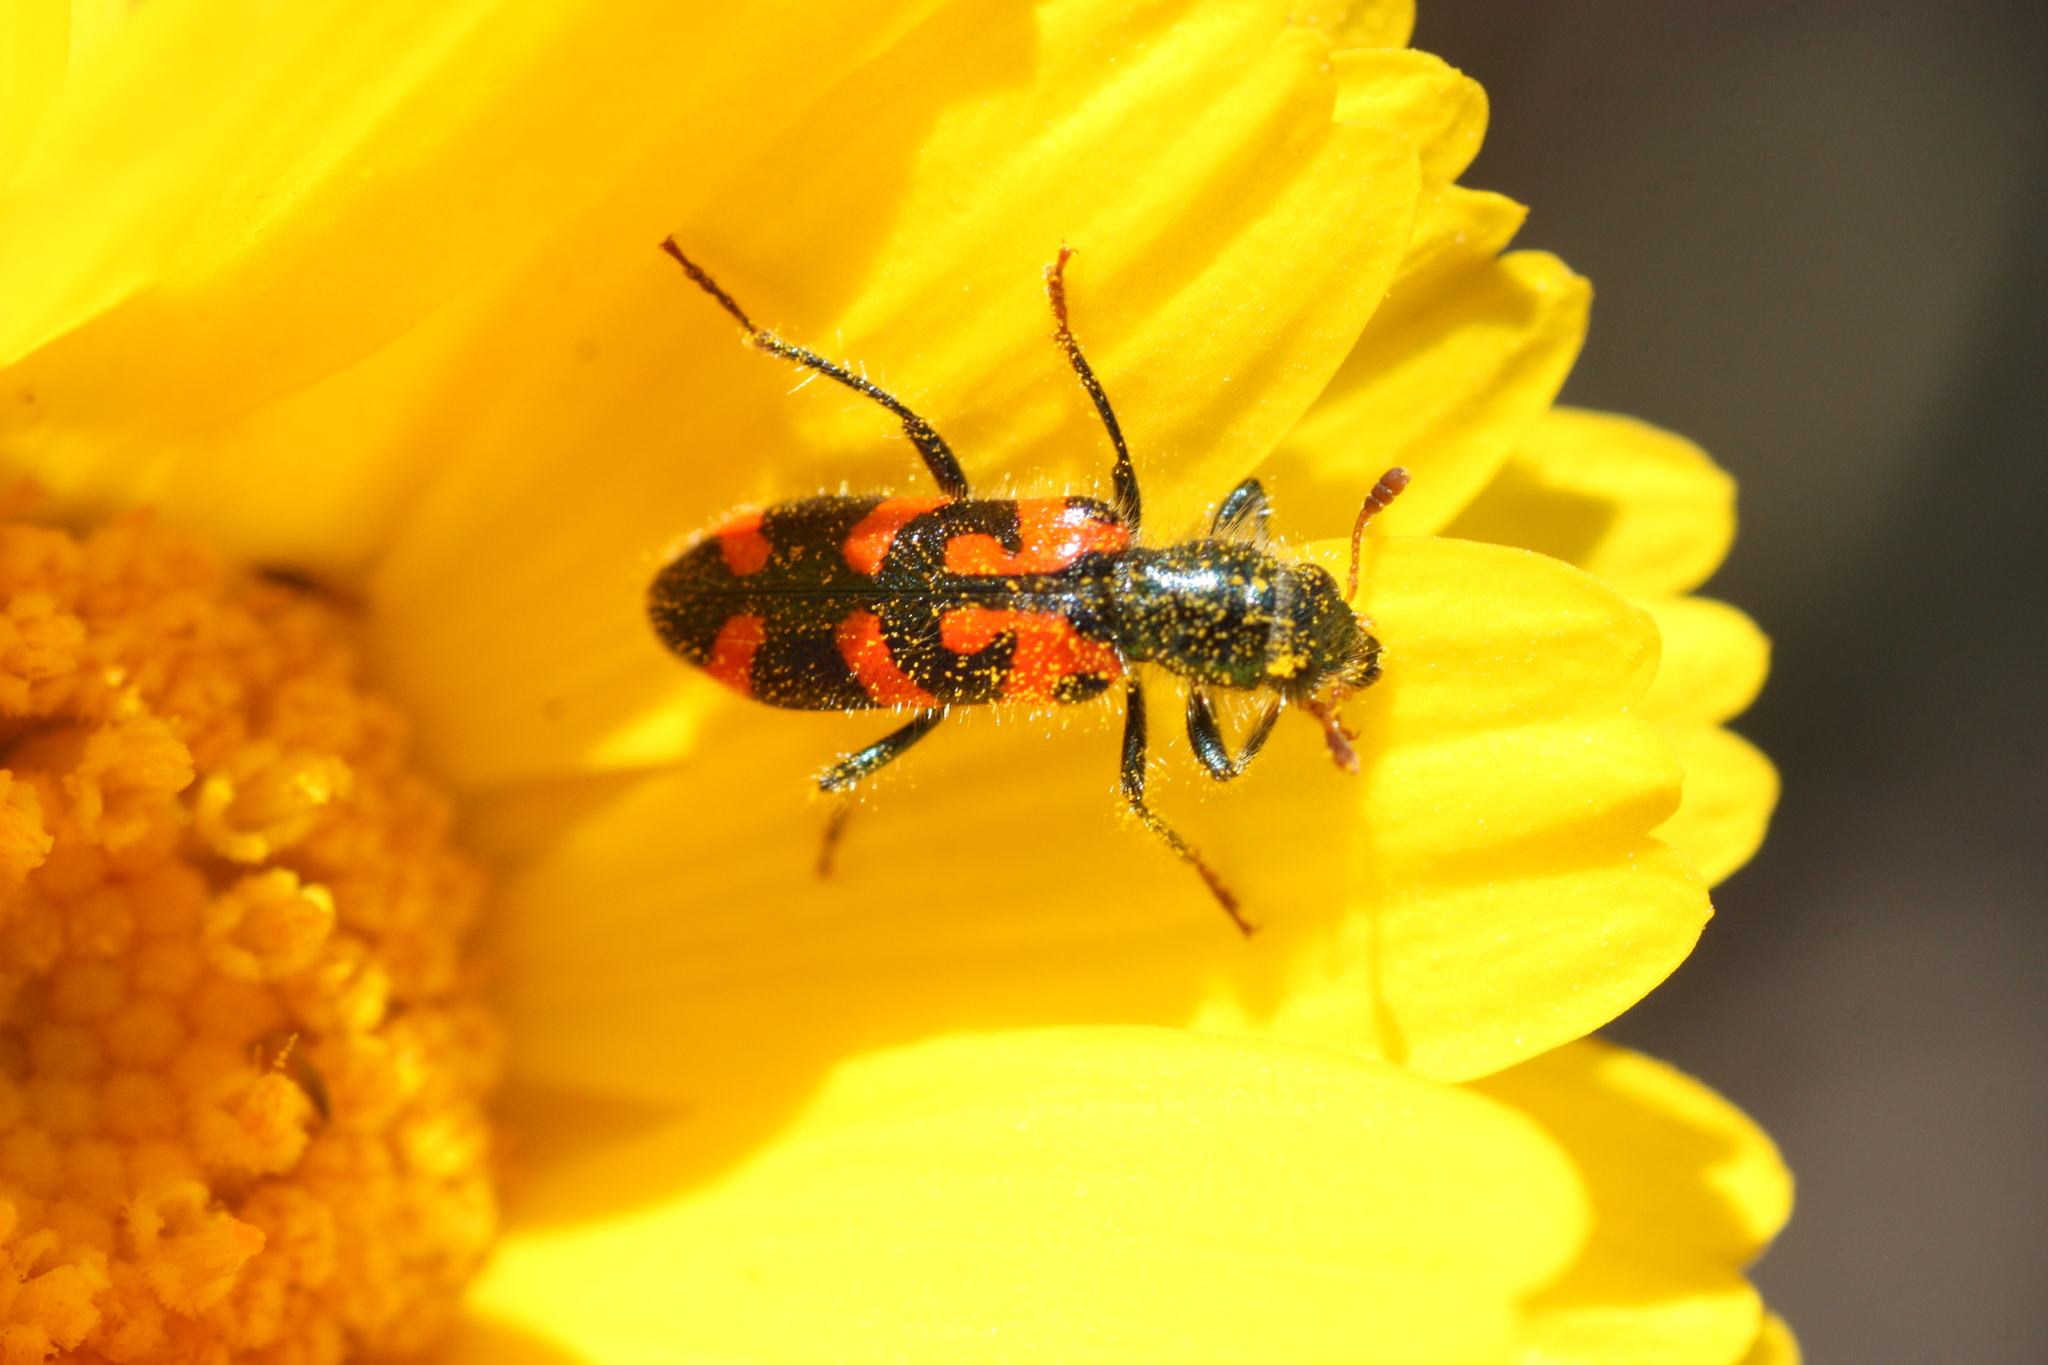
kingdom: Animalia
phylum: Arthropoda
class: Insecta
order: Coleoptera
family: Cleridae
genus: Trichodes
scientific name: Trichodes ornatus
